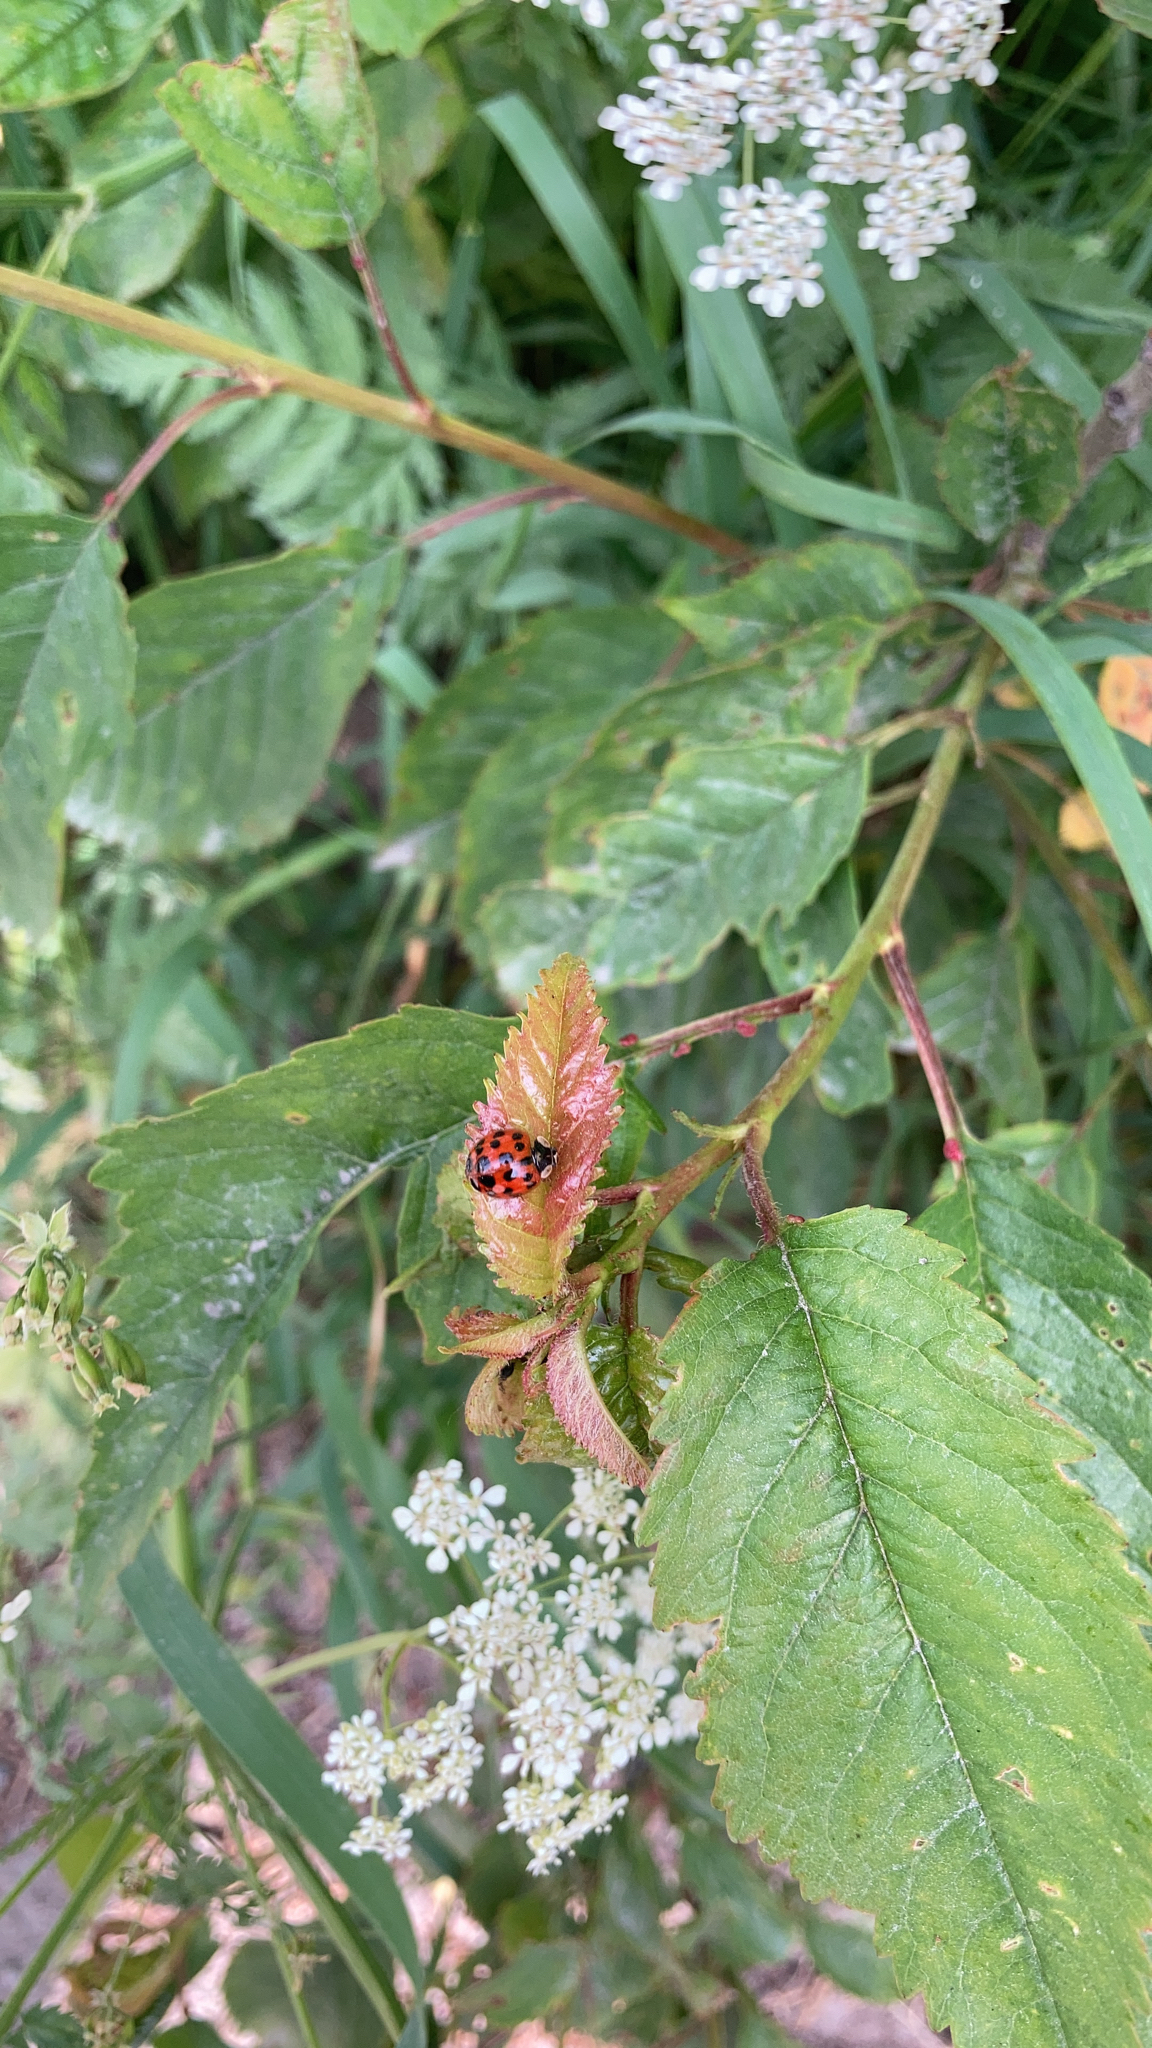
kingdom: Animalia
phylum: Arthropoda
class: Insecta
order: Coleoptera
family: Coccinellidae
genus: Harmonia
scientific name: Harmonia axyridis
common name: Harlequin ladybird
